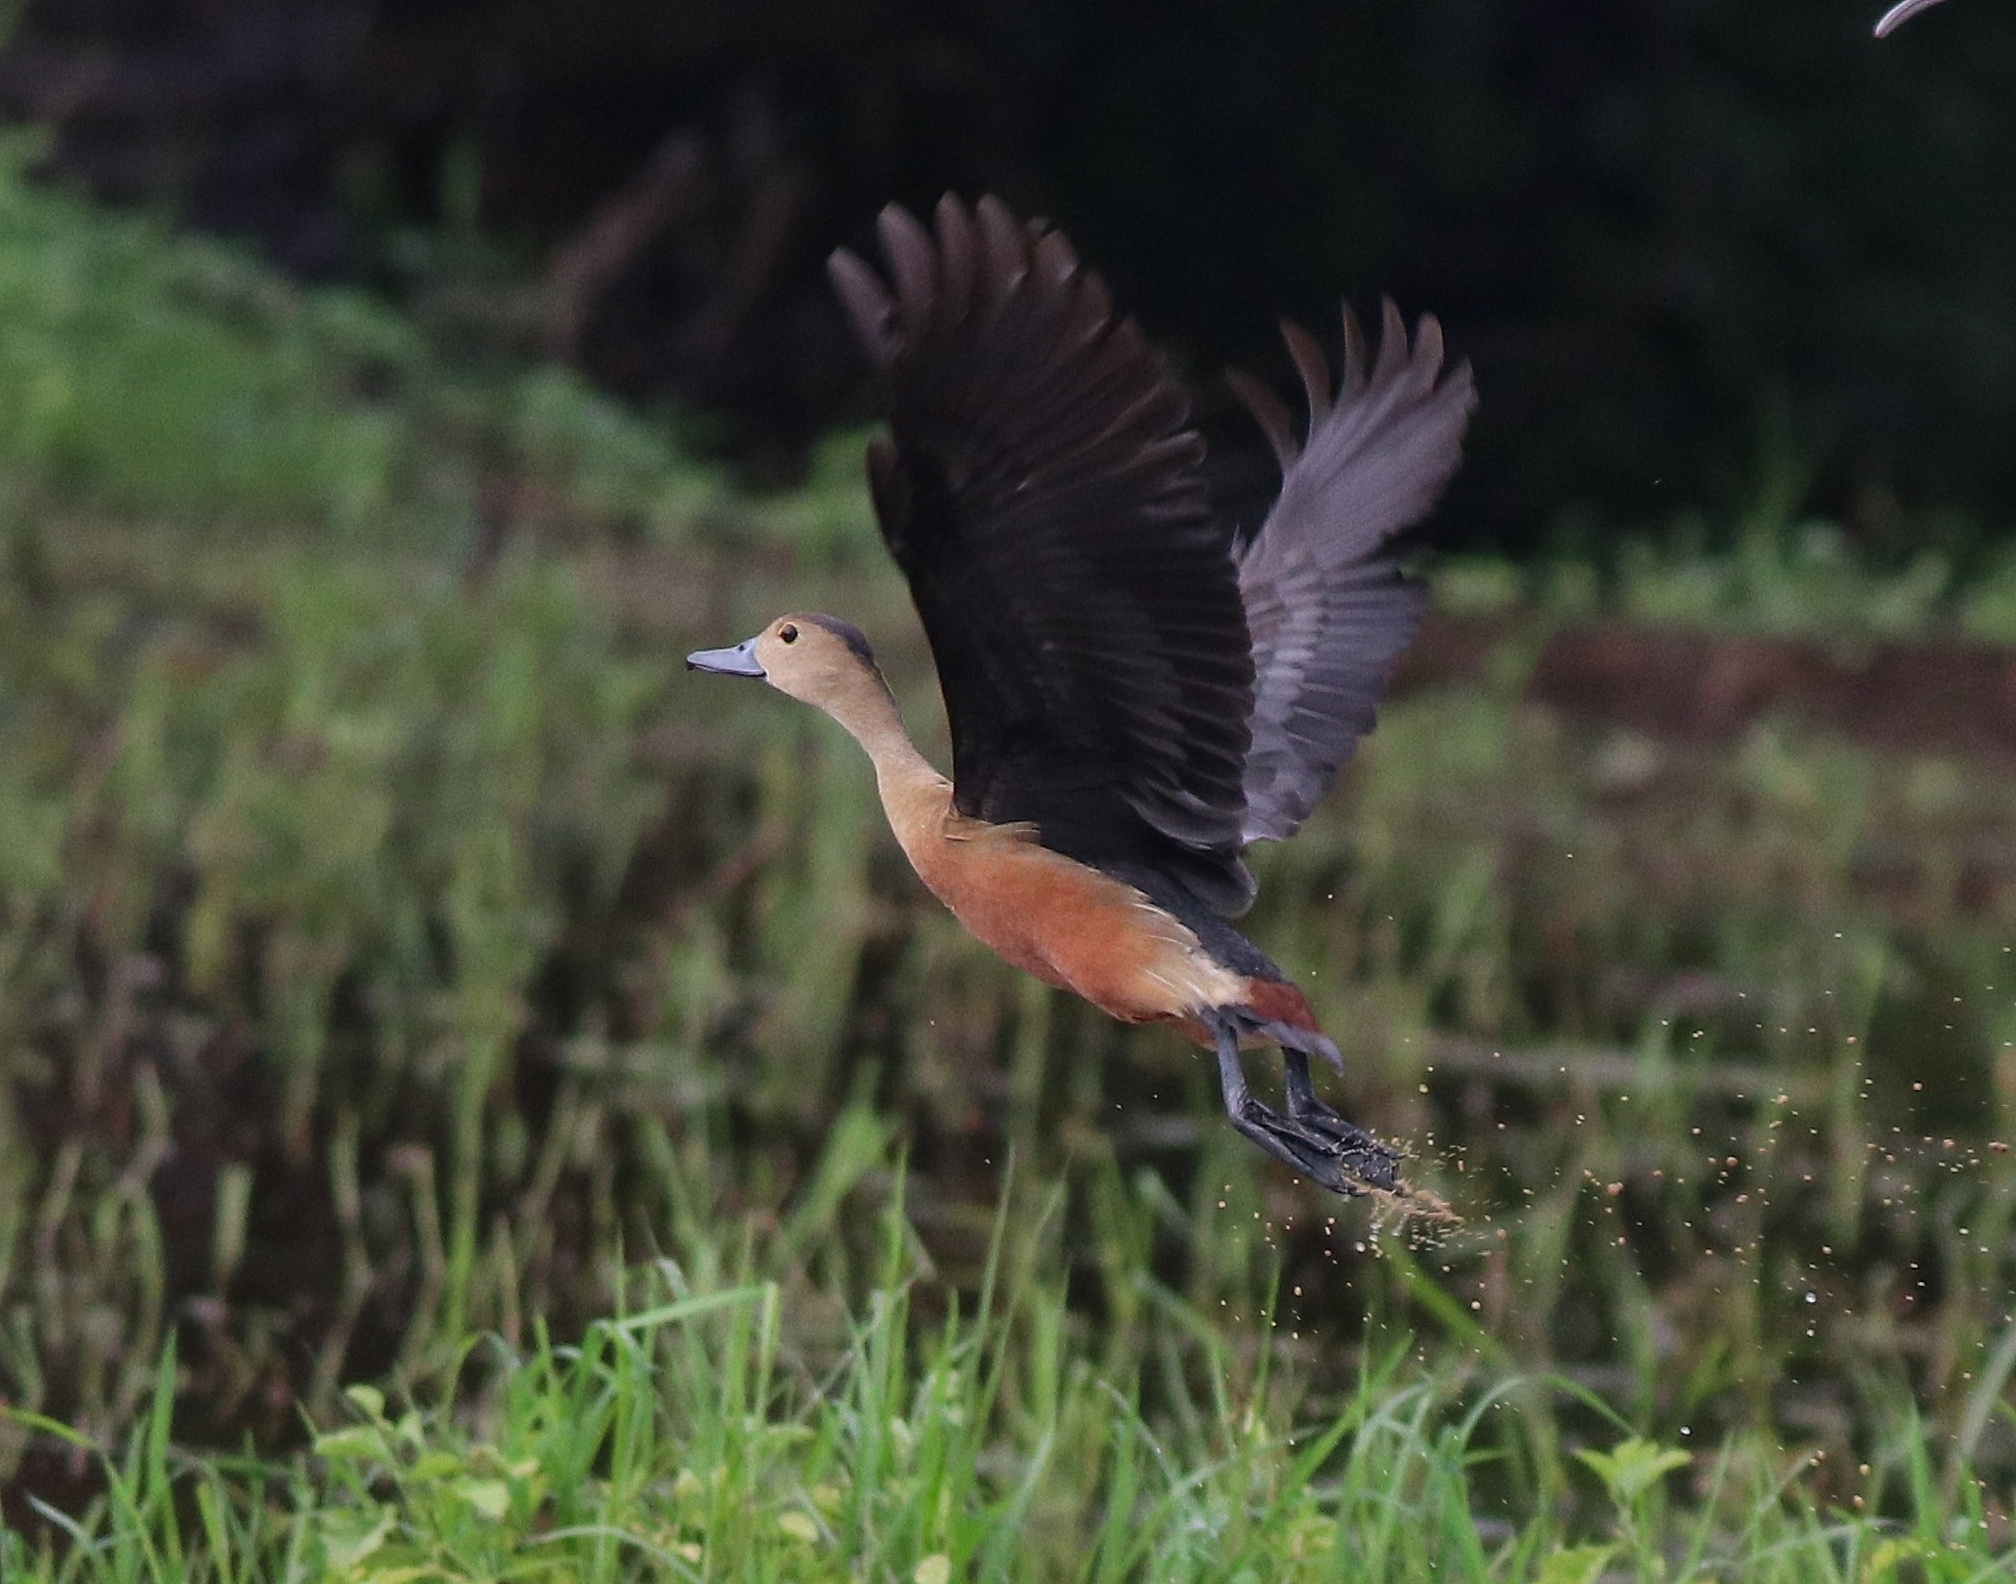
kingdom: Animalia
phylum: Chordata
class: Aves
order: Anseriformes
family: Anatidae
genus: Dendrocygna
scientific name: Dendrocygna javanica
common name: Lesser whistling-duck
